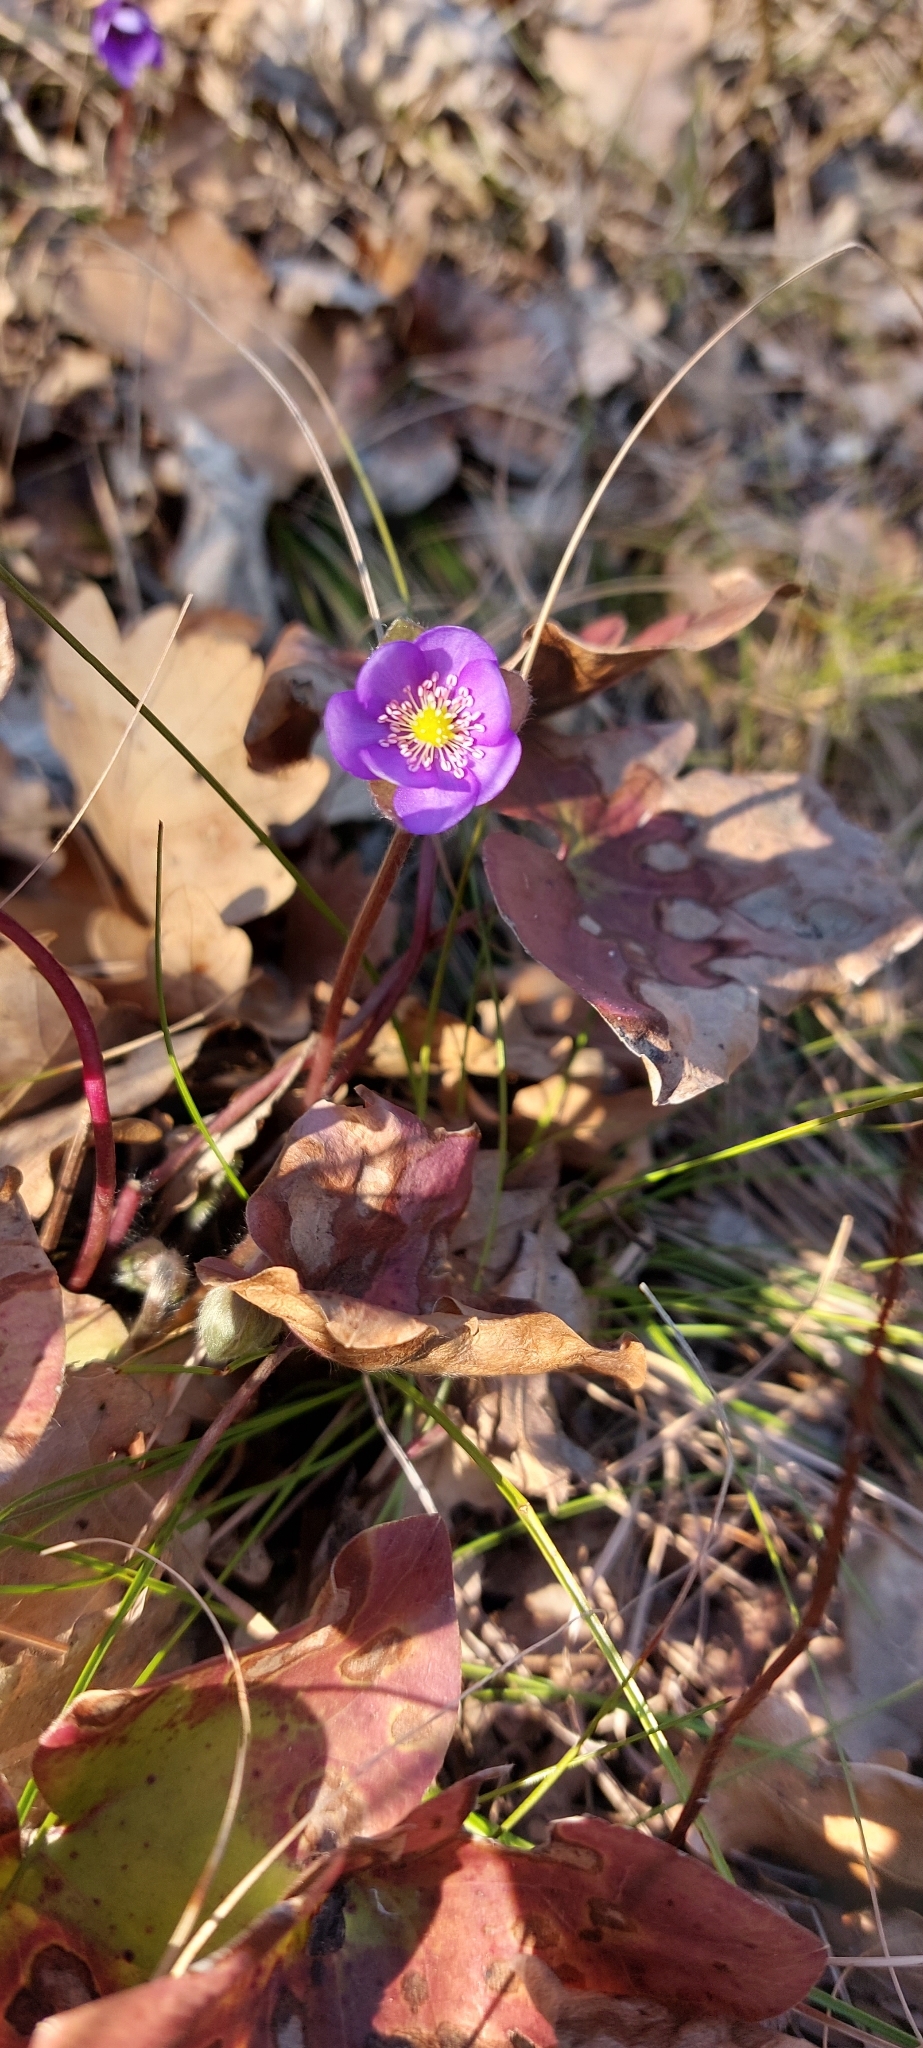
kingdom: Plantae
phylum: Tracheophyta
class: Magnoliopsida
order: Ranunculales
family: Ranunculaceae
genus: Hepatica
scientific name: Hepatica nobilis
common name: Liverleaf
